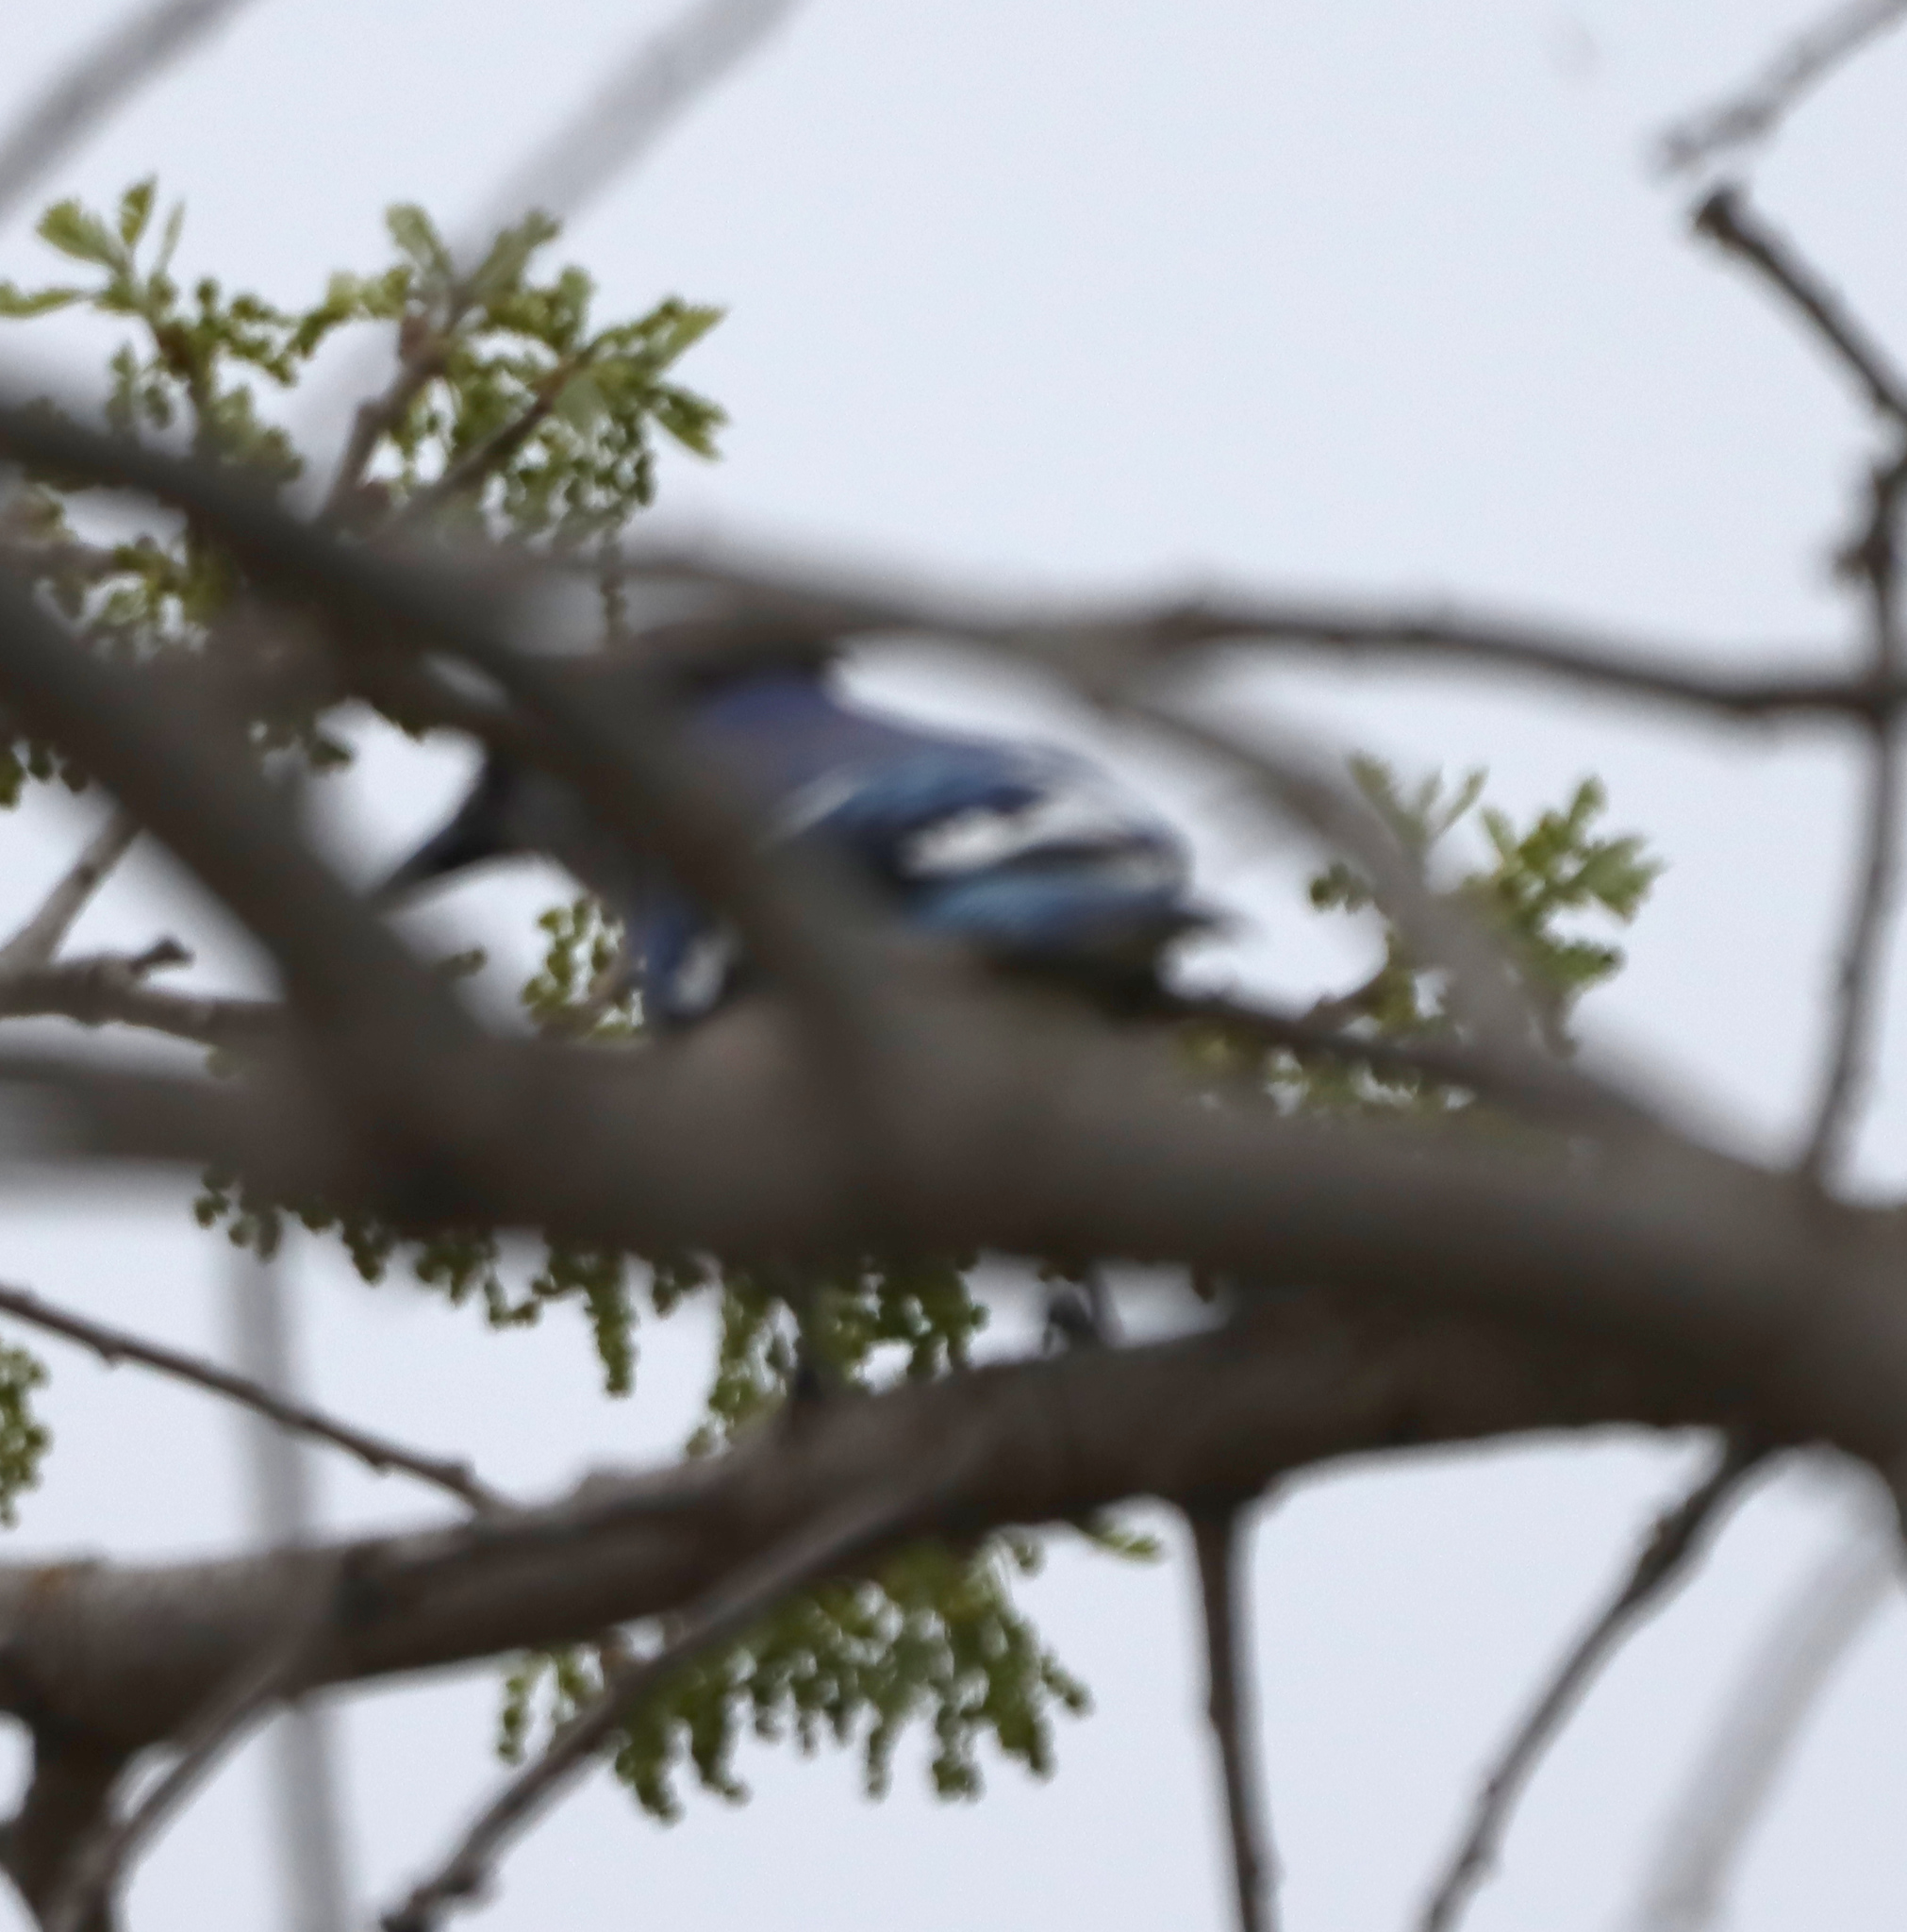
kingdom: Animalia
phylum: Chordata
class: Aves
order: Passeriformes
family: Corvidae
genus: Cyanocitta
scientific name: Cyanocitta cristata
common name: Blue jay
